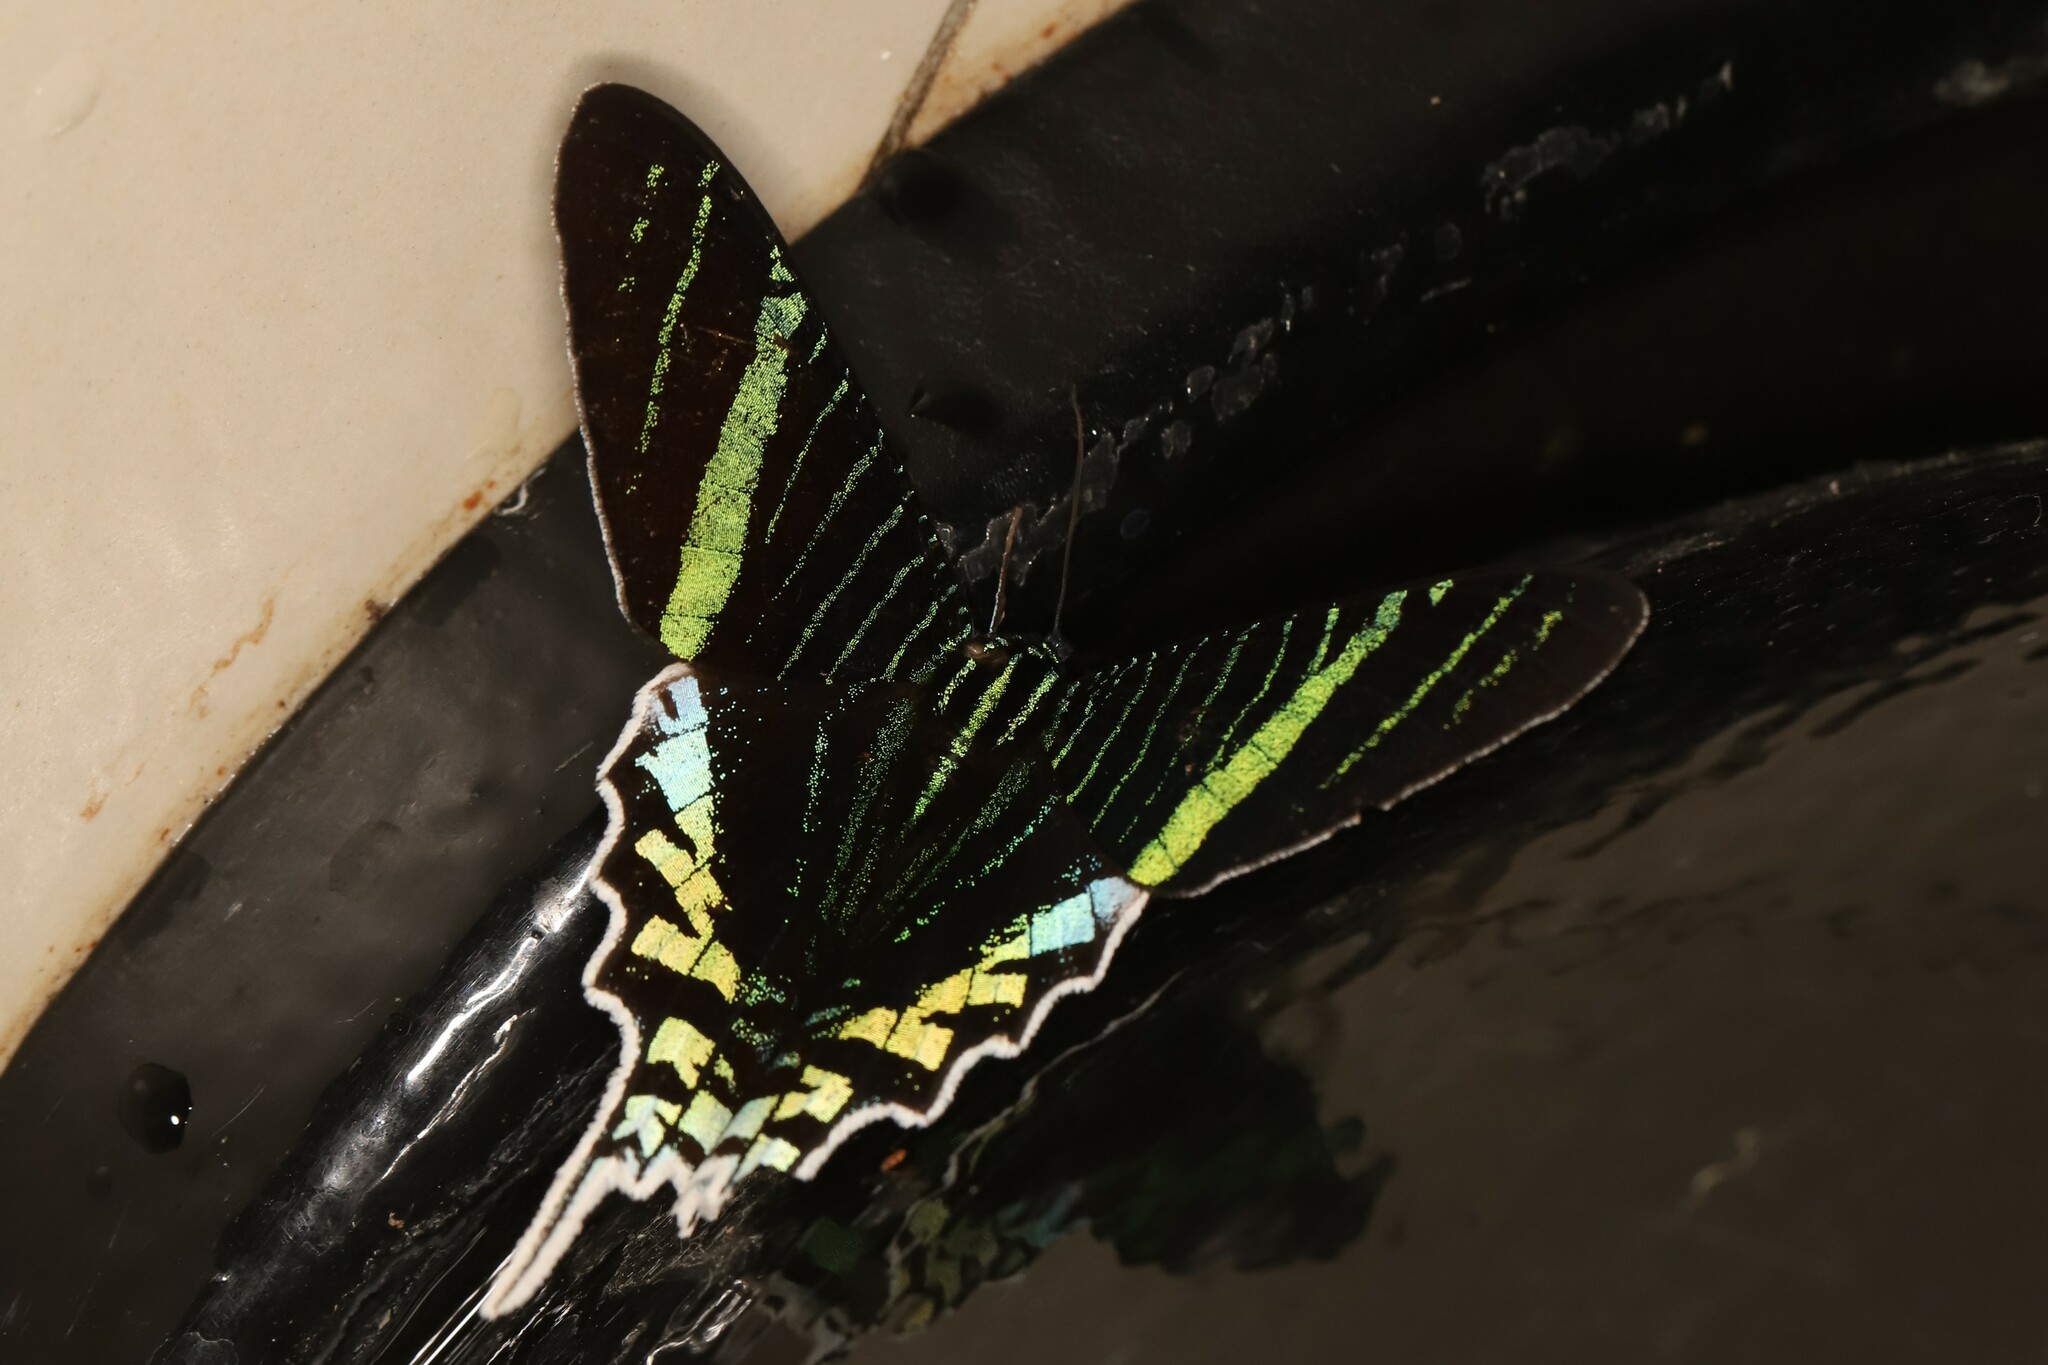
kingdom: Animalia
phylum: Arthropoda
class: Insecta
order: Lepidoptera
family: Uraniidae
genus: Urania
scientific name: Urania leilus
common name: Peacock moth
